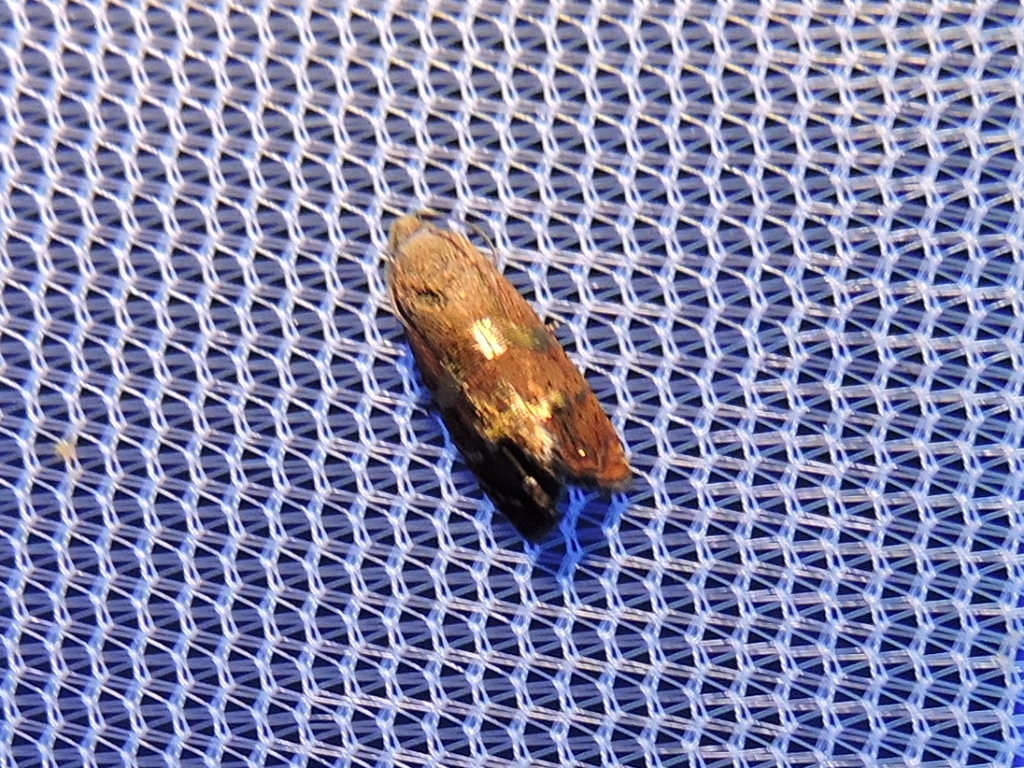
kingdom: Animalia
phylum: Arthropoda
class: Insecta
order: Lepidoptera
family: Tortricidae
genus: Cydia
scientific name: Cydia latiferreana
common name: Filbertworm moth
